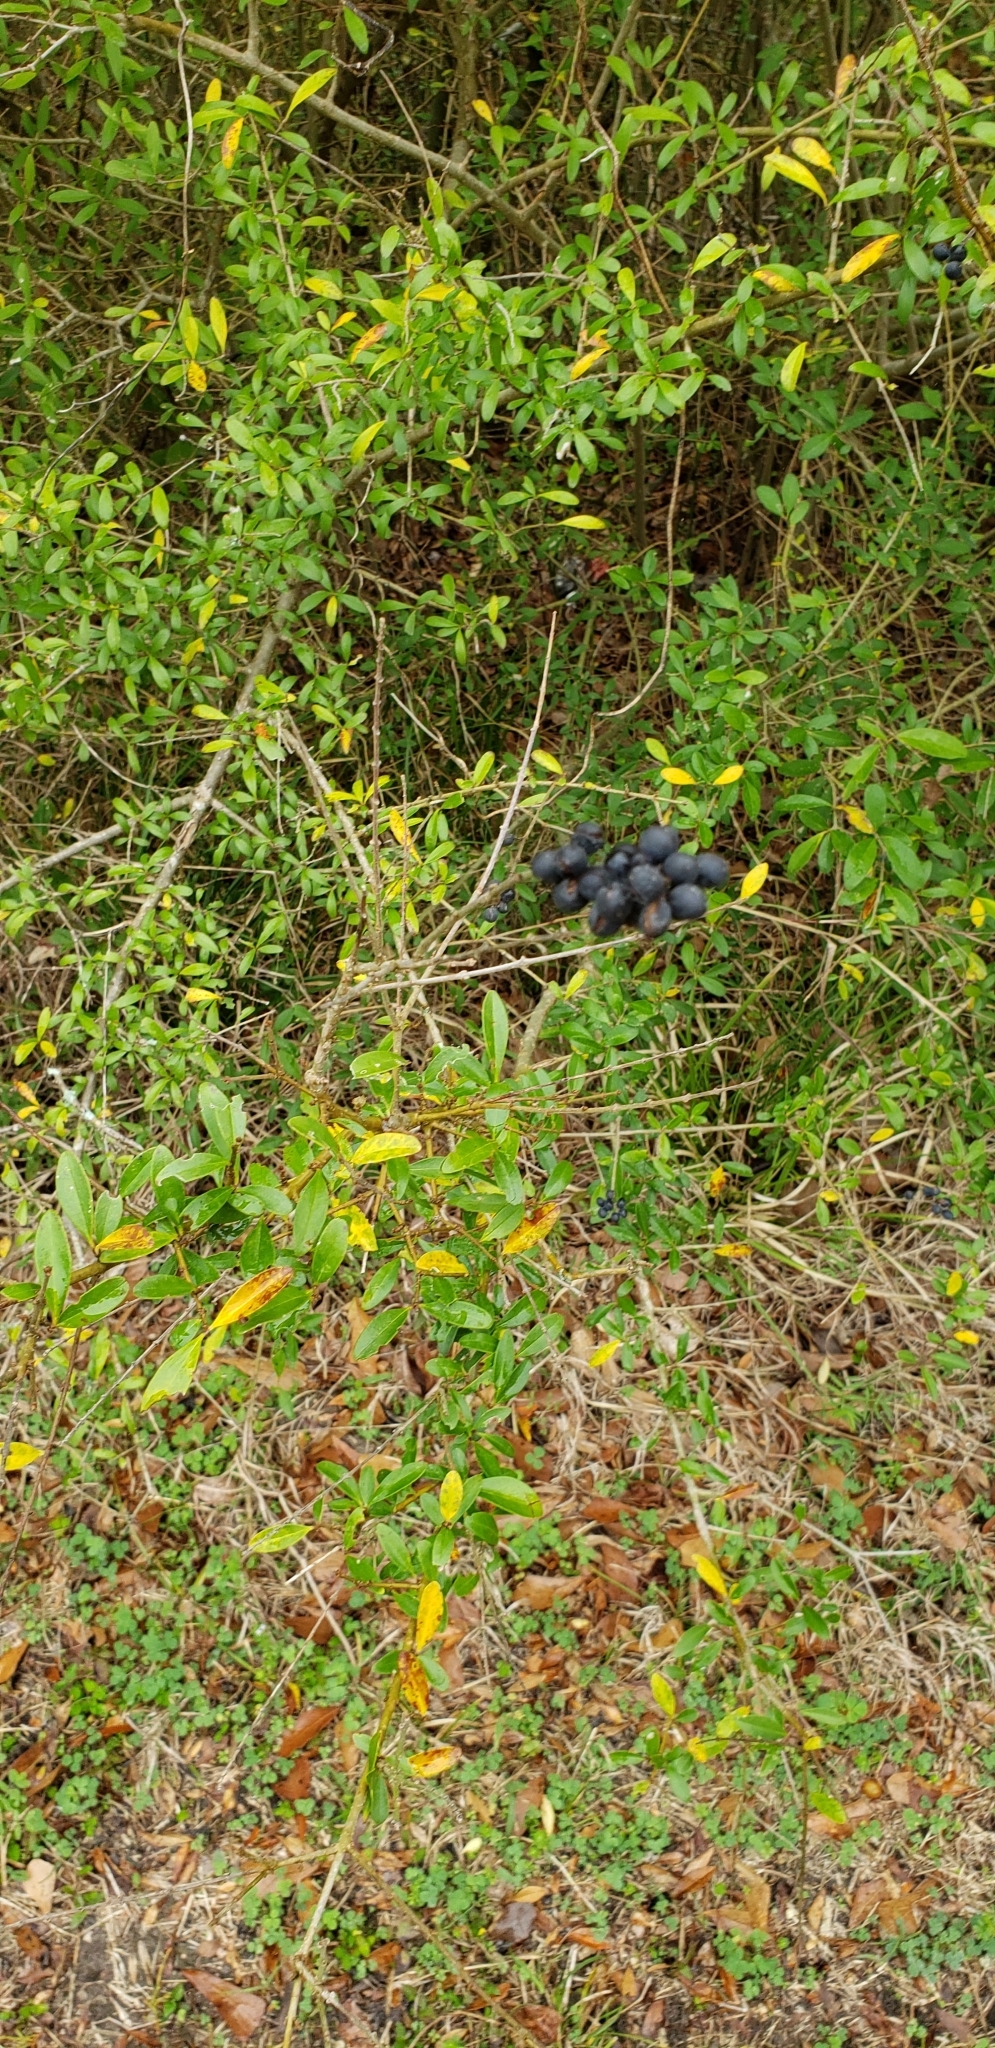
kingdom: Plantae
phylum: Tracheophyta
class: Magnoliopsida
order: Lamiales
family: Oleaceae
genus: Ligustrum
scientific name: Ligustrum quihoui
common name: Waxyleaf privet
